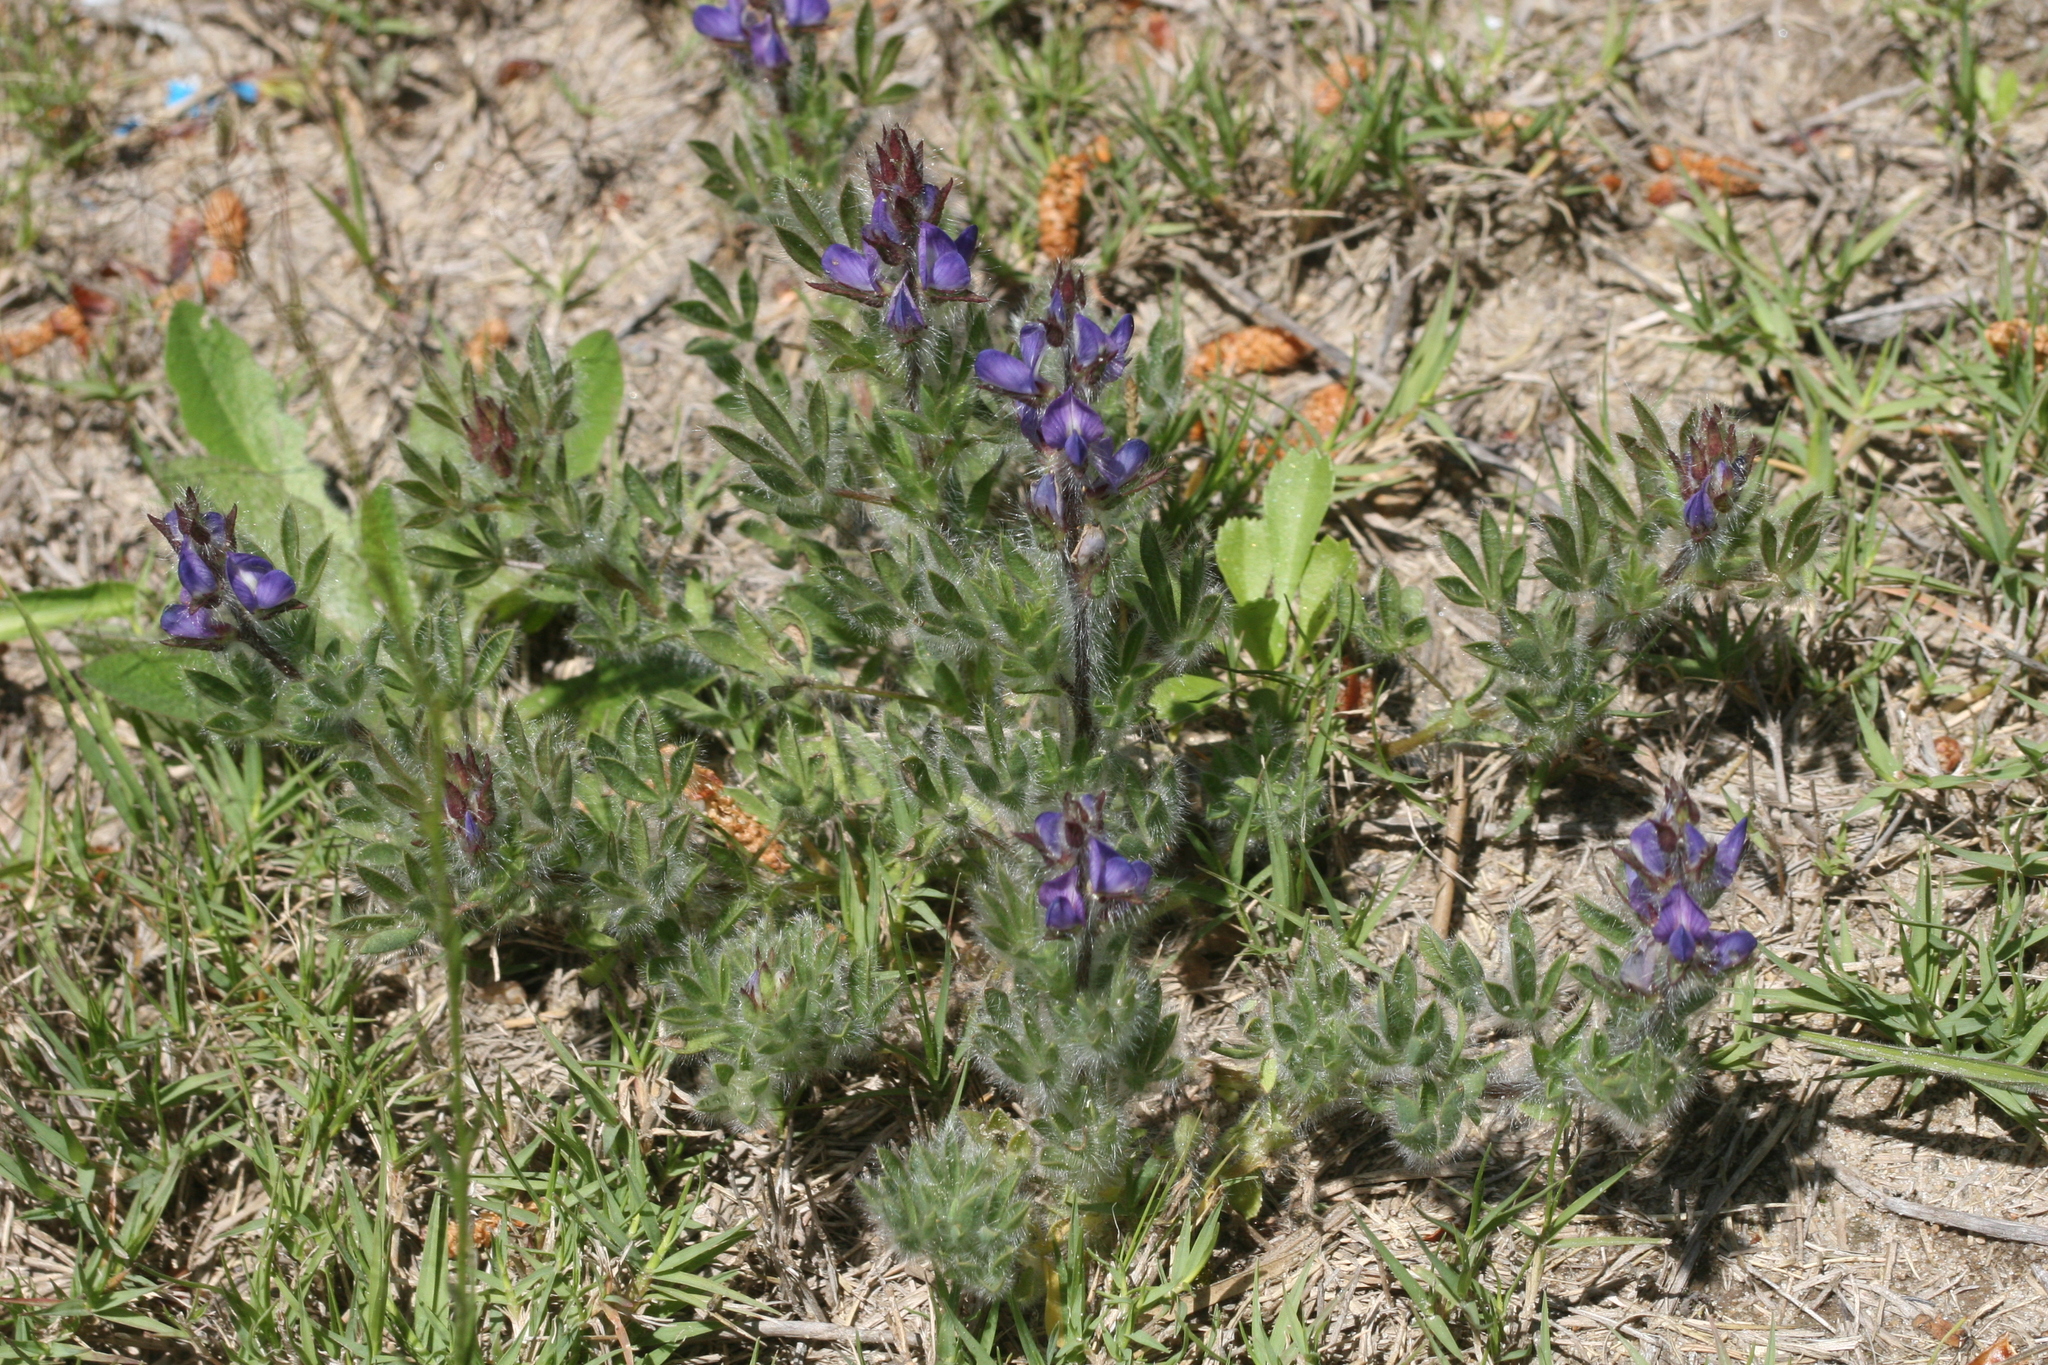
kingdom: Plantae
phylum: Tracheophyta
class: Magnoliopsida
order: Fabales
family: Fabaceae
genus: Lupinus
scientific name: Lupinus bracteolaris
